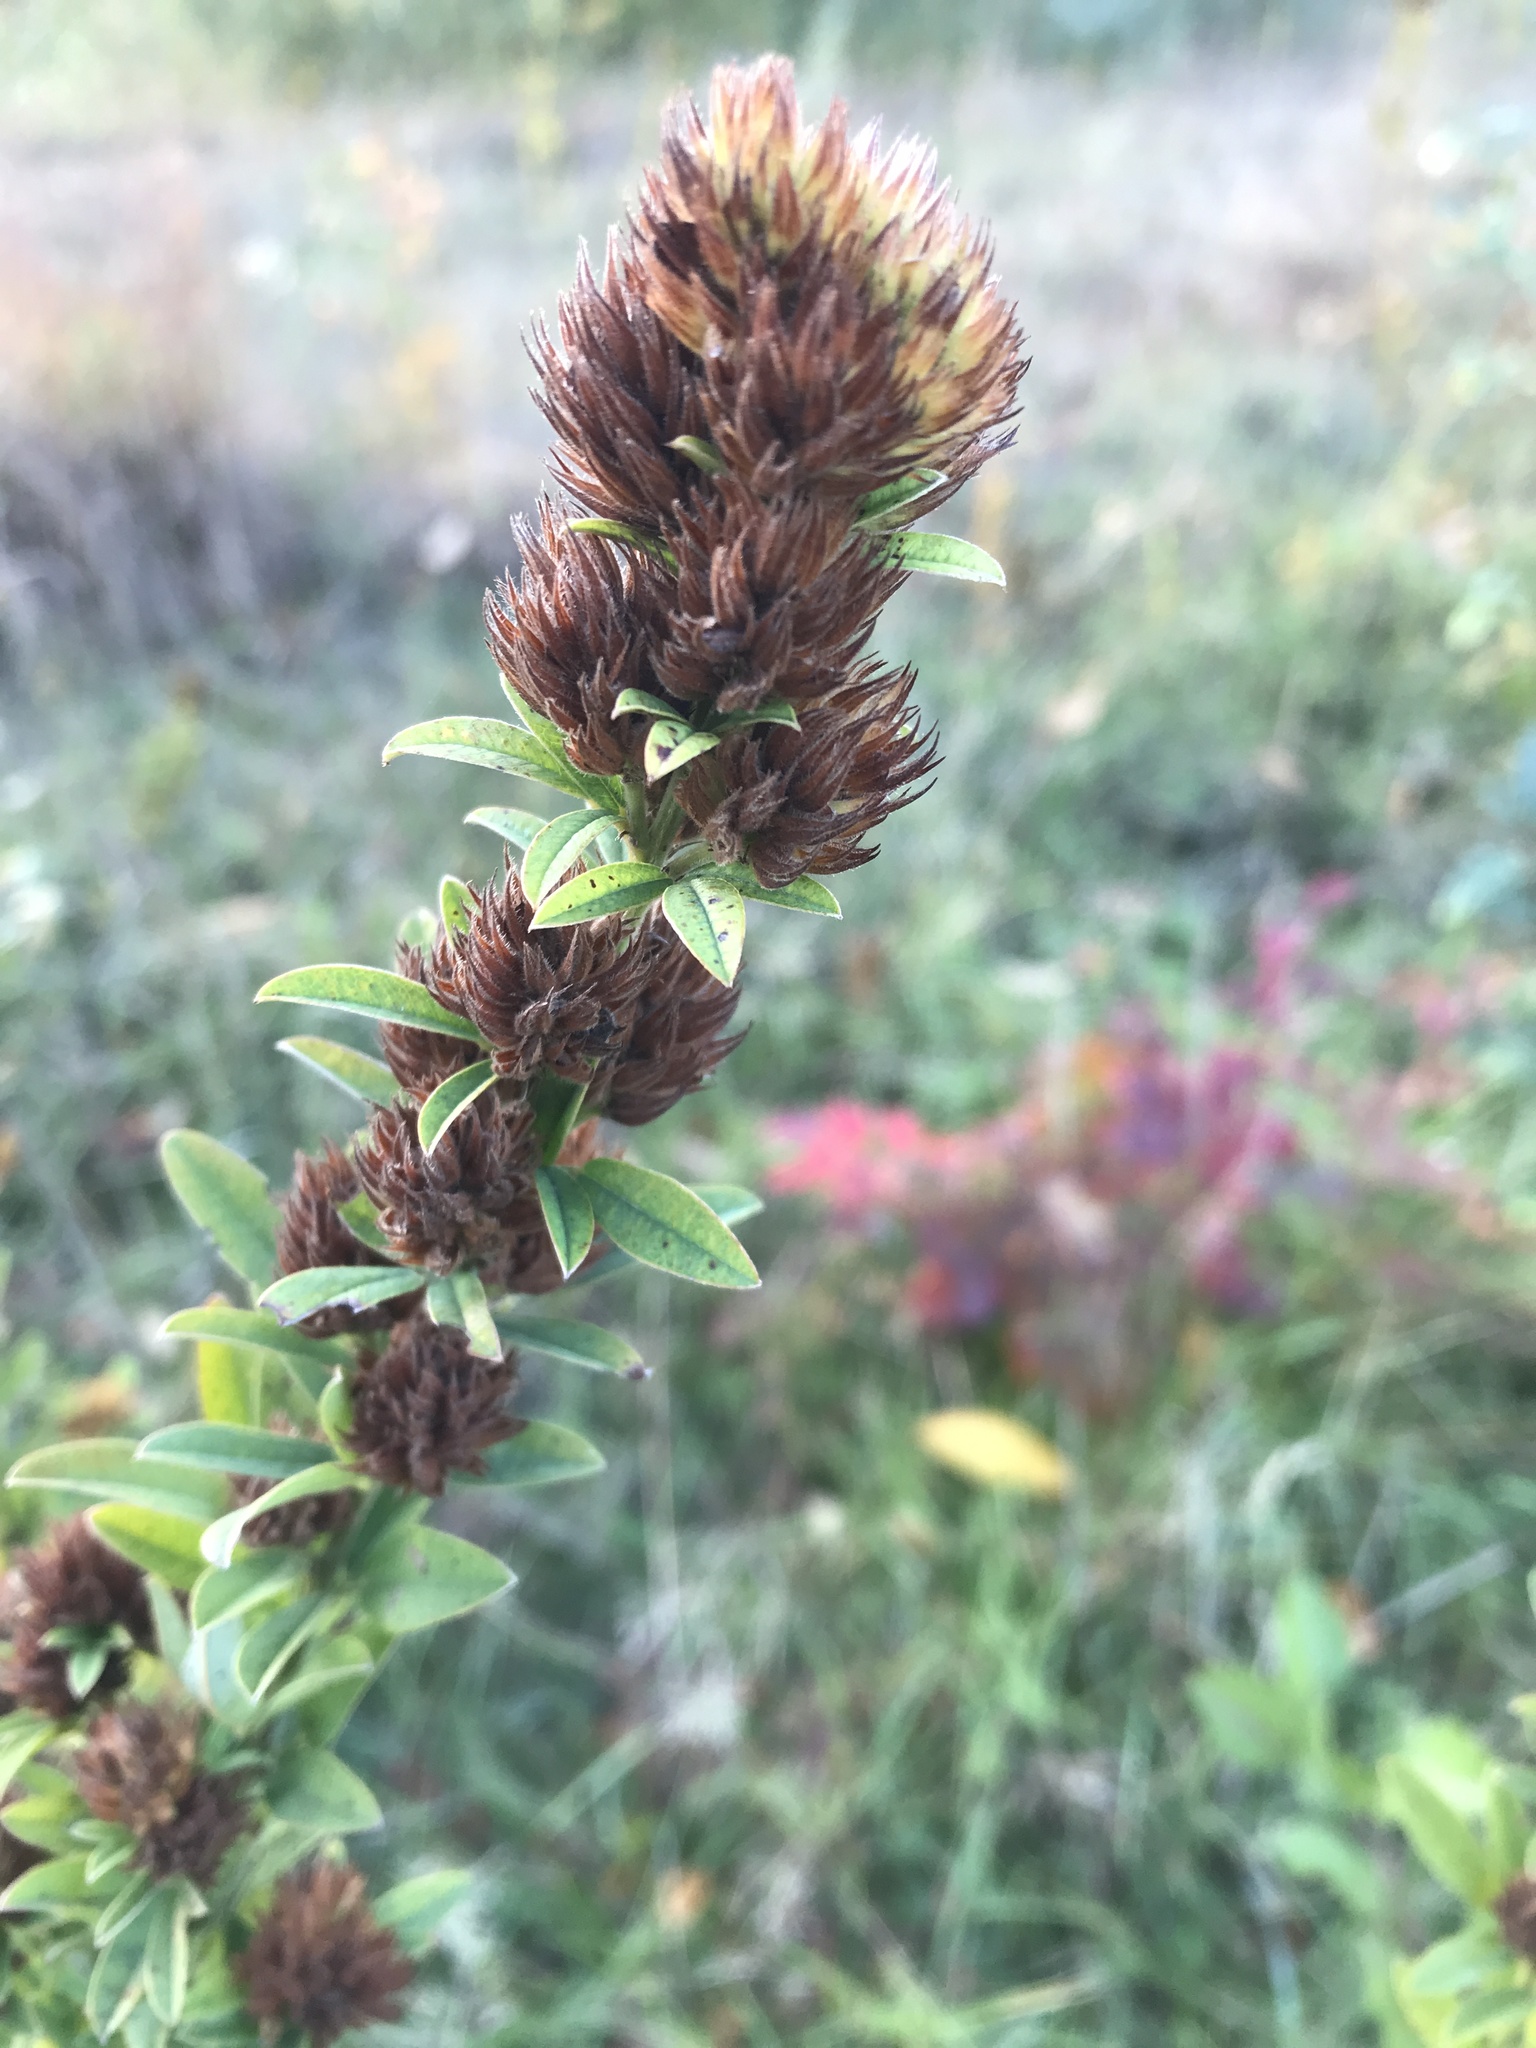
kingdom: Plantae
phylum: Tracheophyta
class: Magnoliopsida
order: Fabales
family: Fabaceae
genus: Lespedeza
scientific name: Lespedeza capitata
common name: Dusty clover
